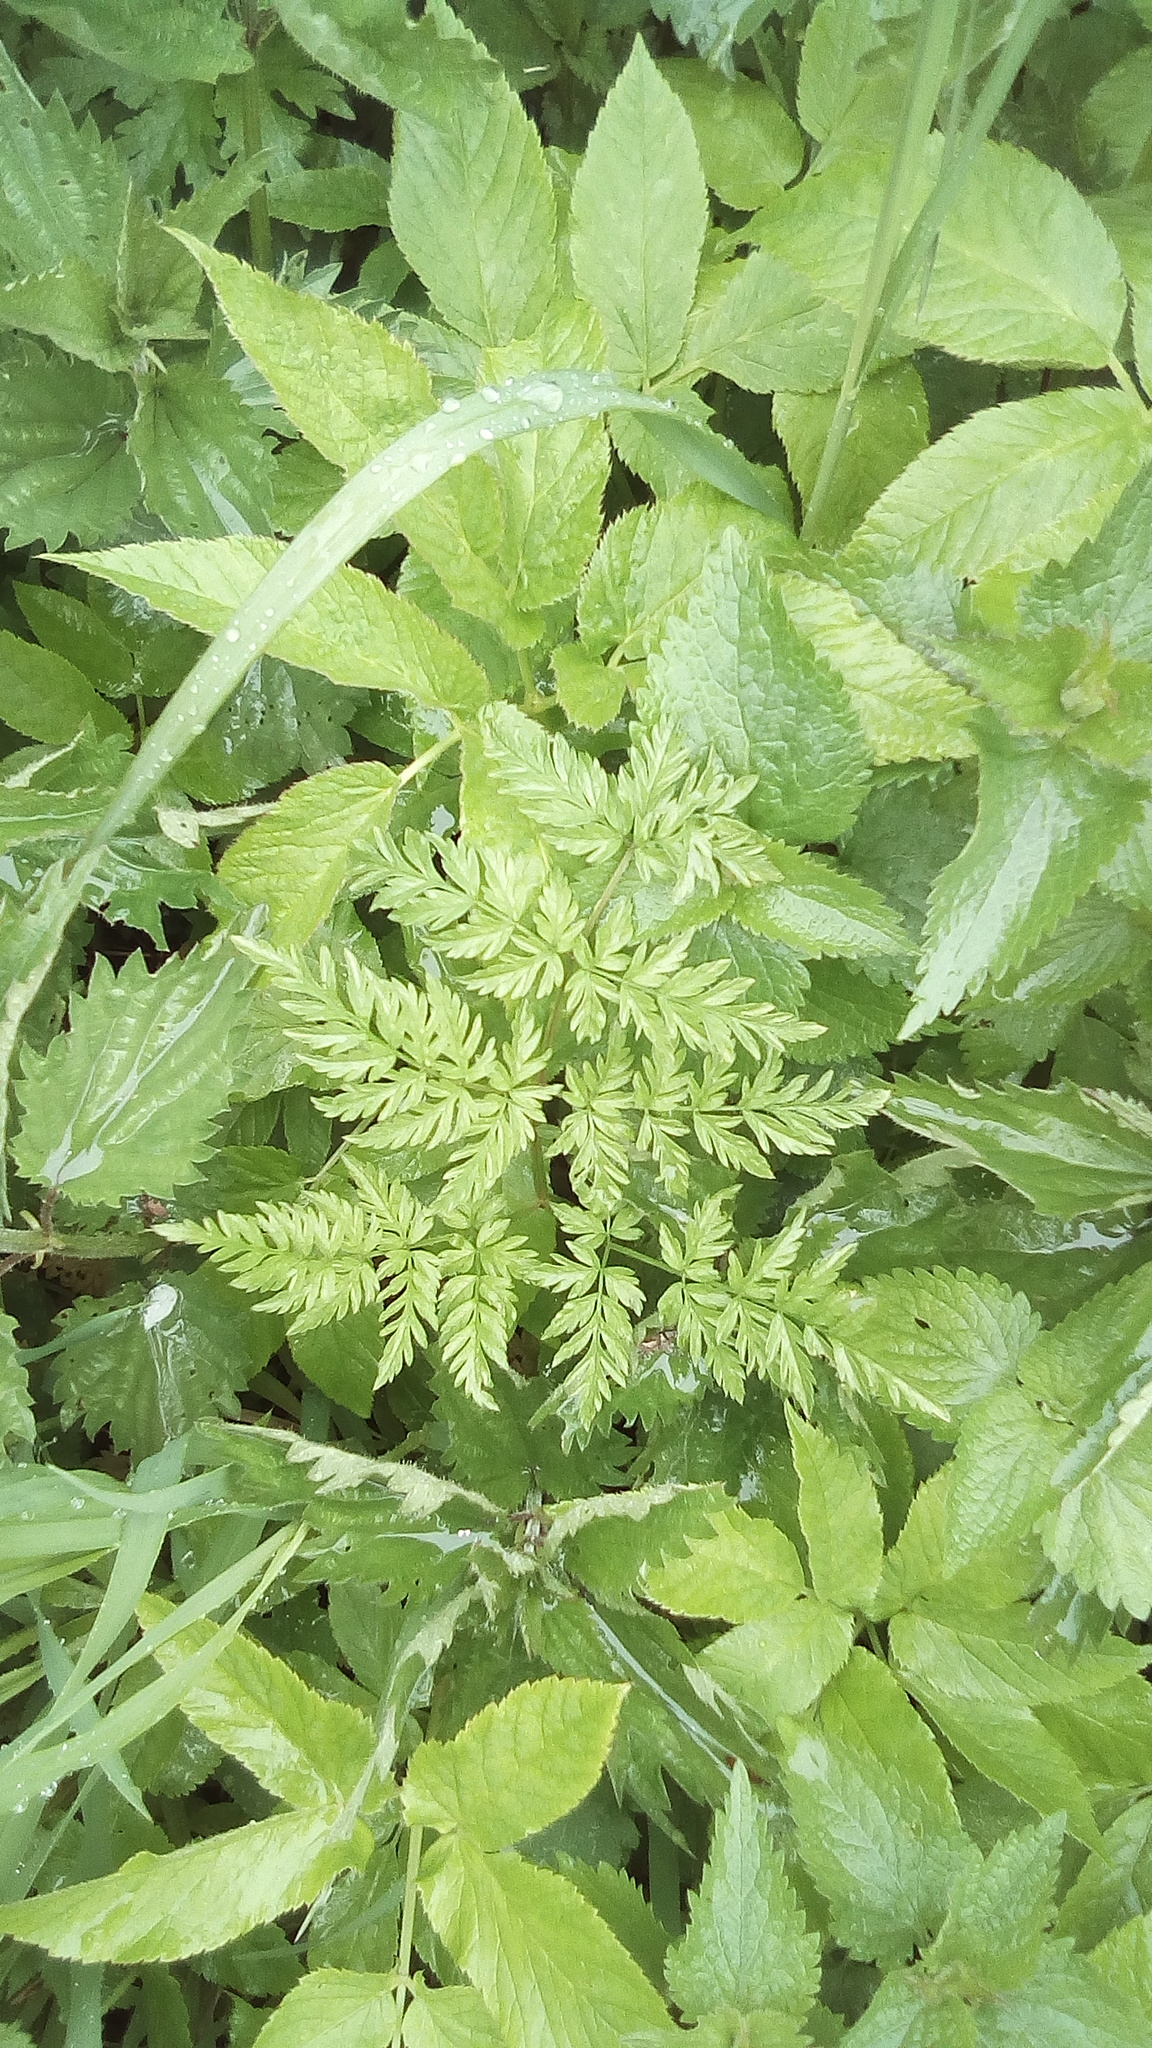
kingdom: Plantae
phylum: Tracheophyta
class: Magnoliopsida
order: Apiales
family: Apiaceae
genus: Anthriscus
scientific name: Anthriscus sylvestris
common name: Cow parsley
